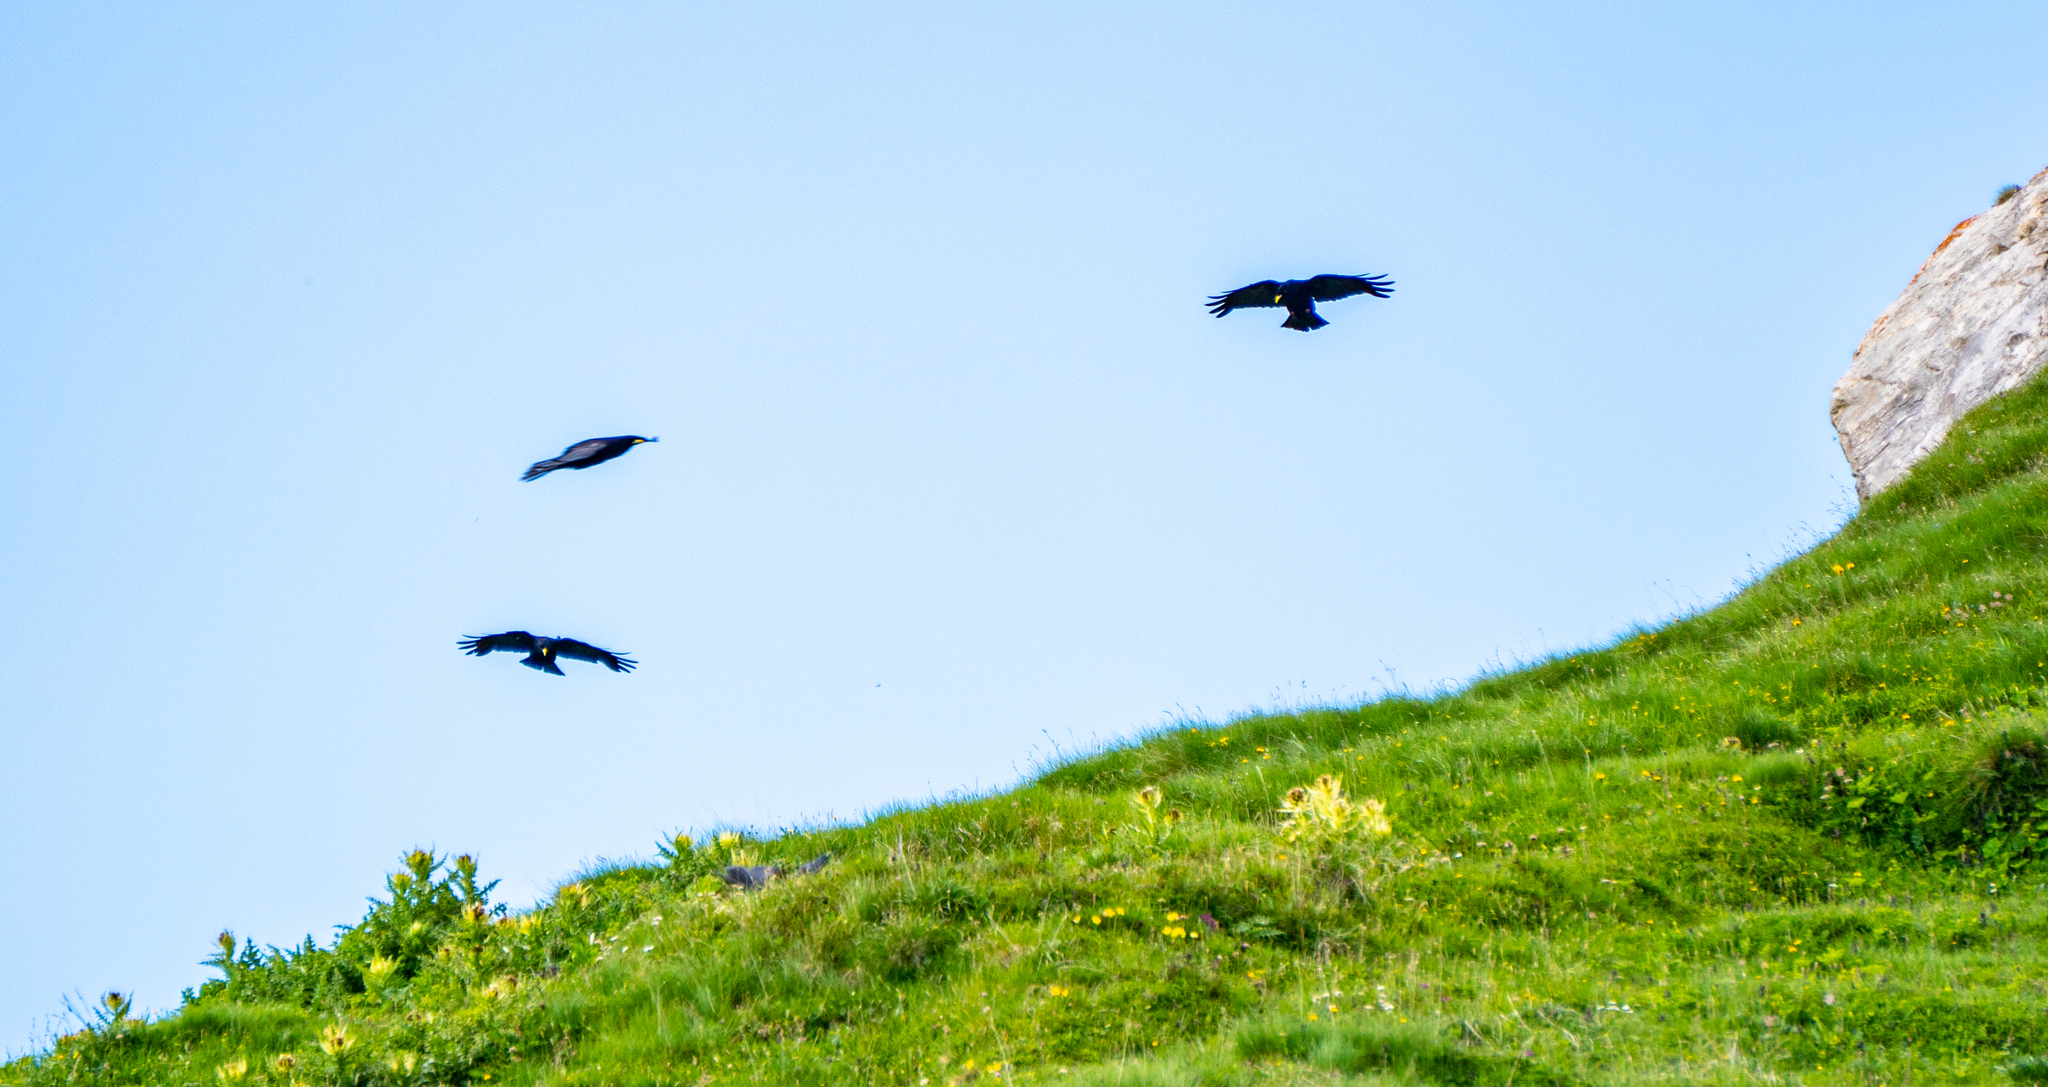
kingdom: Animalia
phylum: Chordata
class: Aves
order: Passeriformes
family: Corvidae
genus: Pyrrhocorax
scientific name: Pyrrhocorax graculus
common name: Alpine chough
